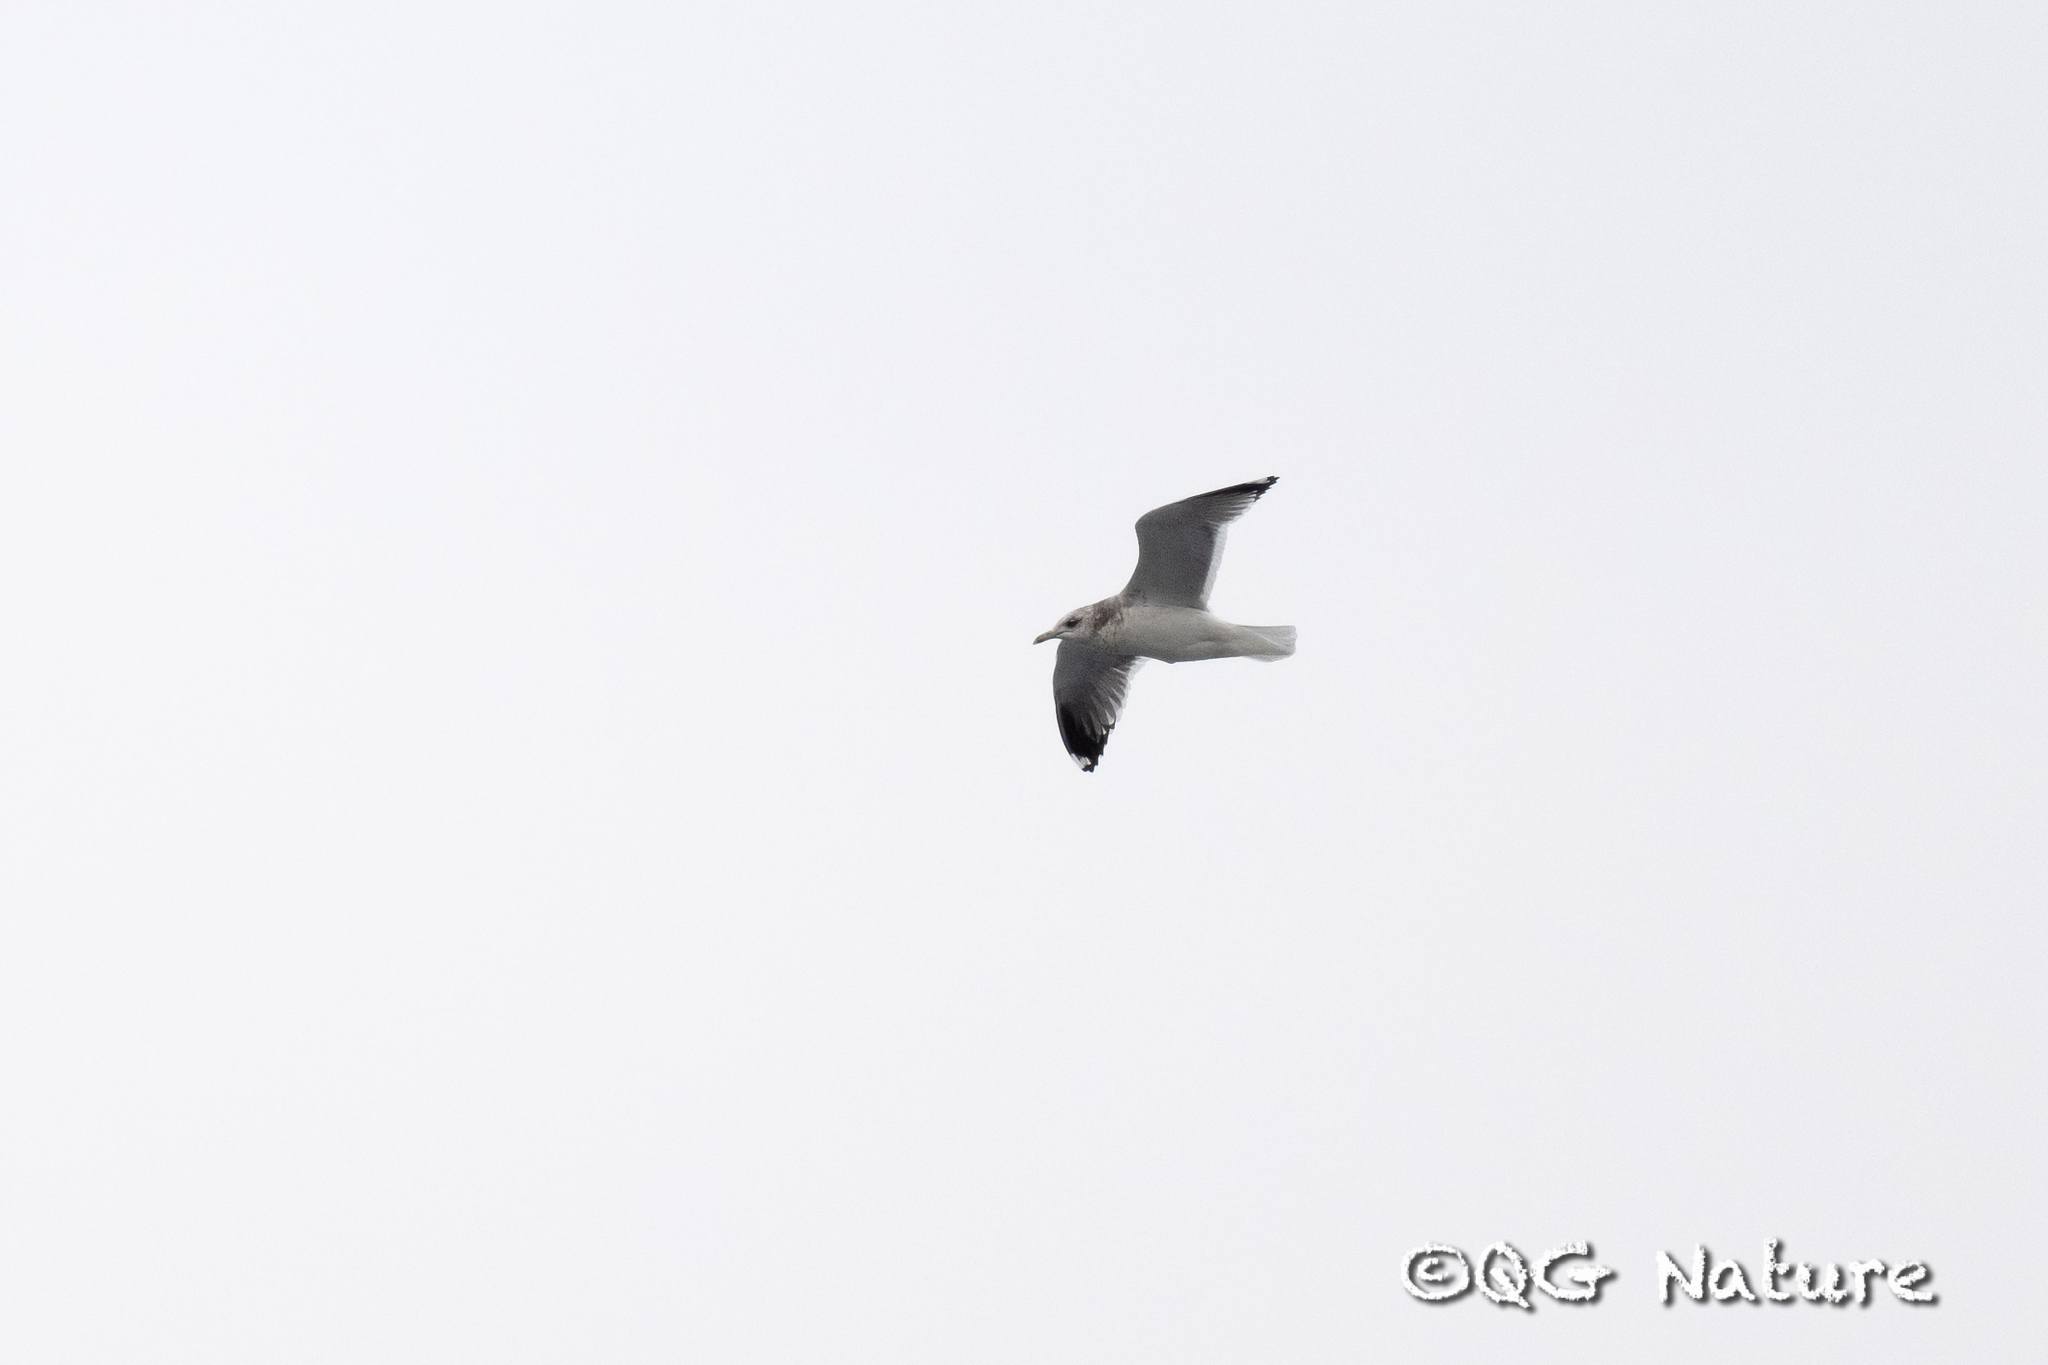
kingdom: Animalia
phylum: Chordata
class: Aves
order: Charadriiformes
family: Laridae
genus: Larus
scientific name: Larus canus
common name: Mew gull
